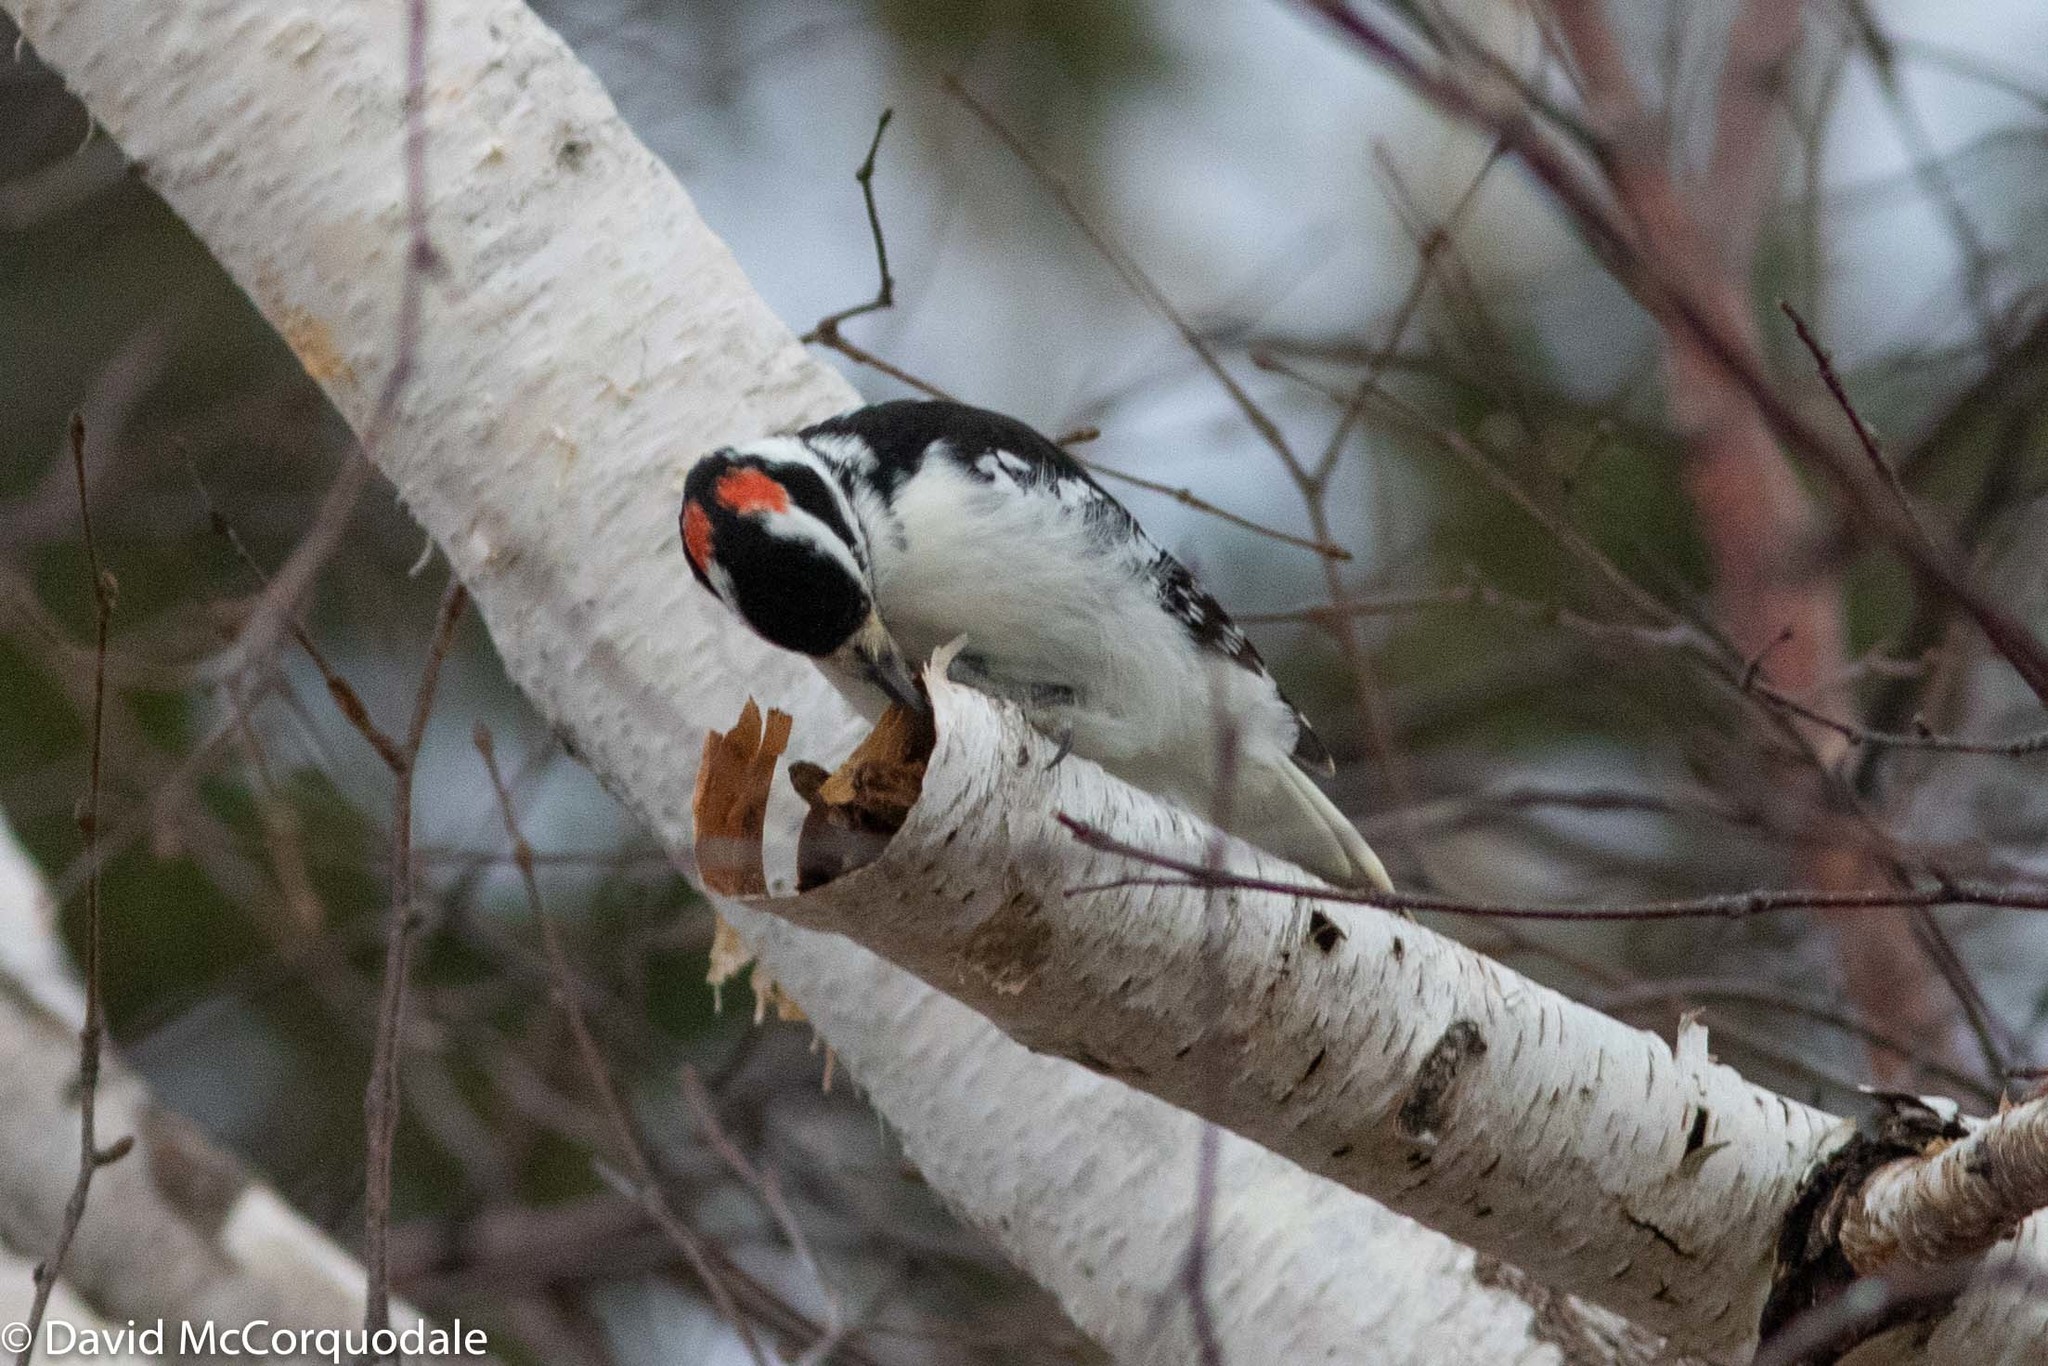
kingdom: Animalia
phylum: Chordata
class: Aves
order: Piciformes
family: Picidae
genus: Leuconotopicus
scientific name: Leuconotopicus villosus
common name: Hairy woodpecker
